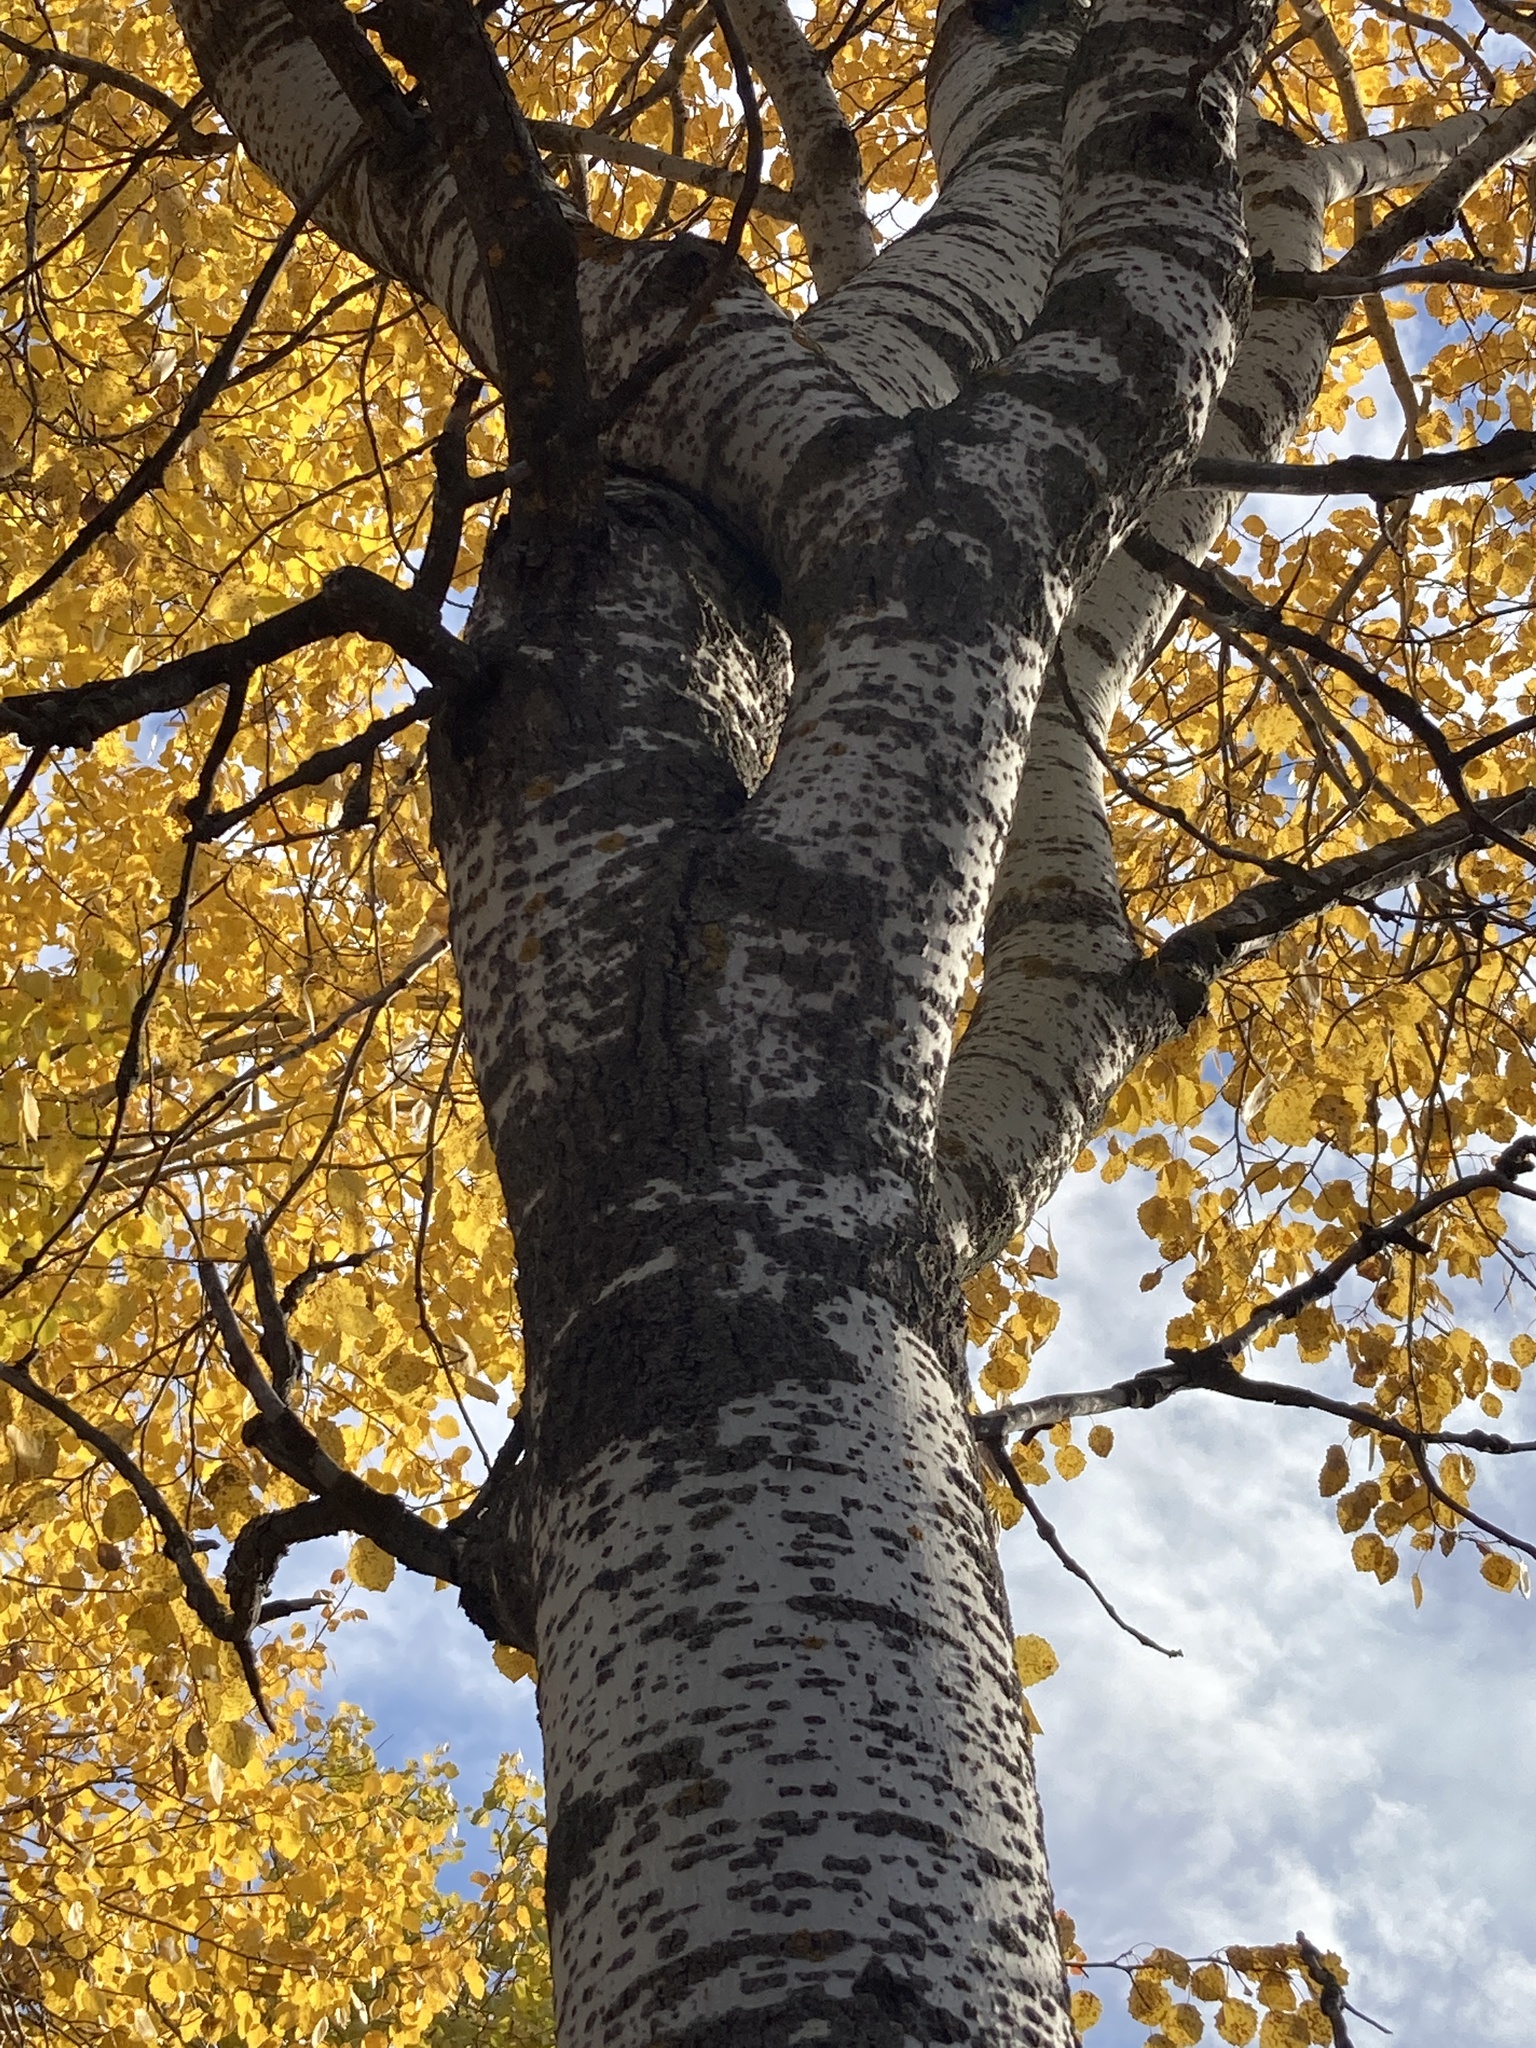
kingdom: Plantae
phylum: Tracheophyta
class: Magnoliopsida
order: Malpighiales
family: Salicaceae
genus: Populus
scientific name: Populus tremula
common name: European aspen
